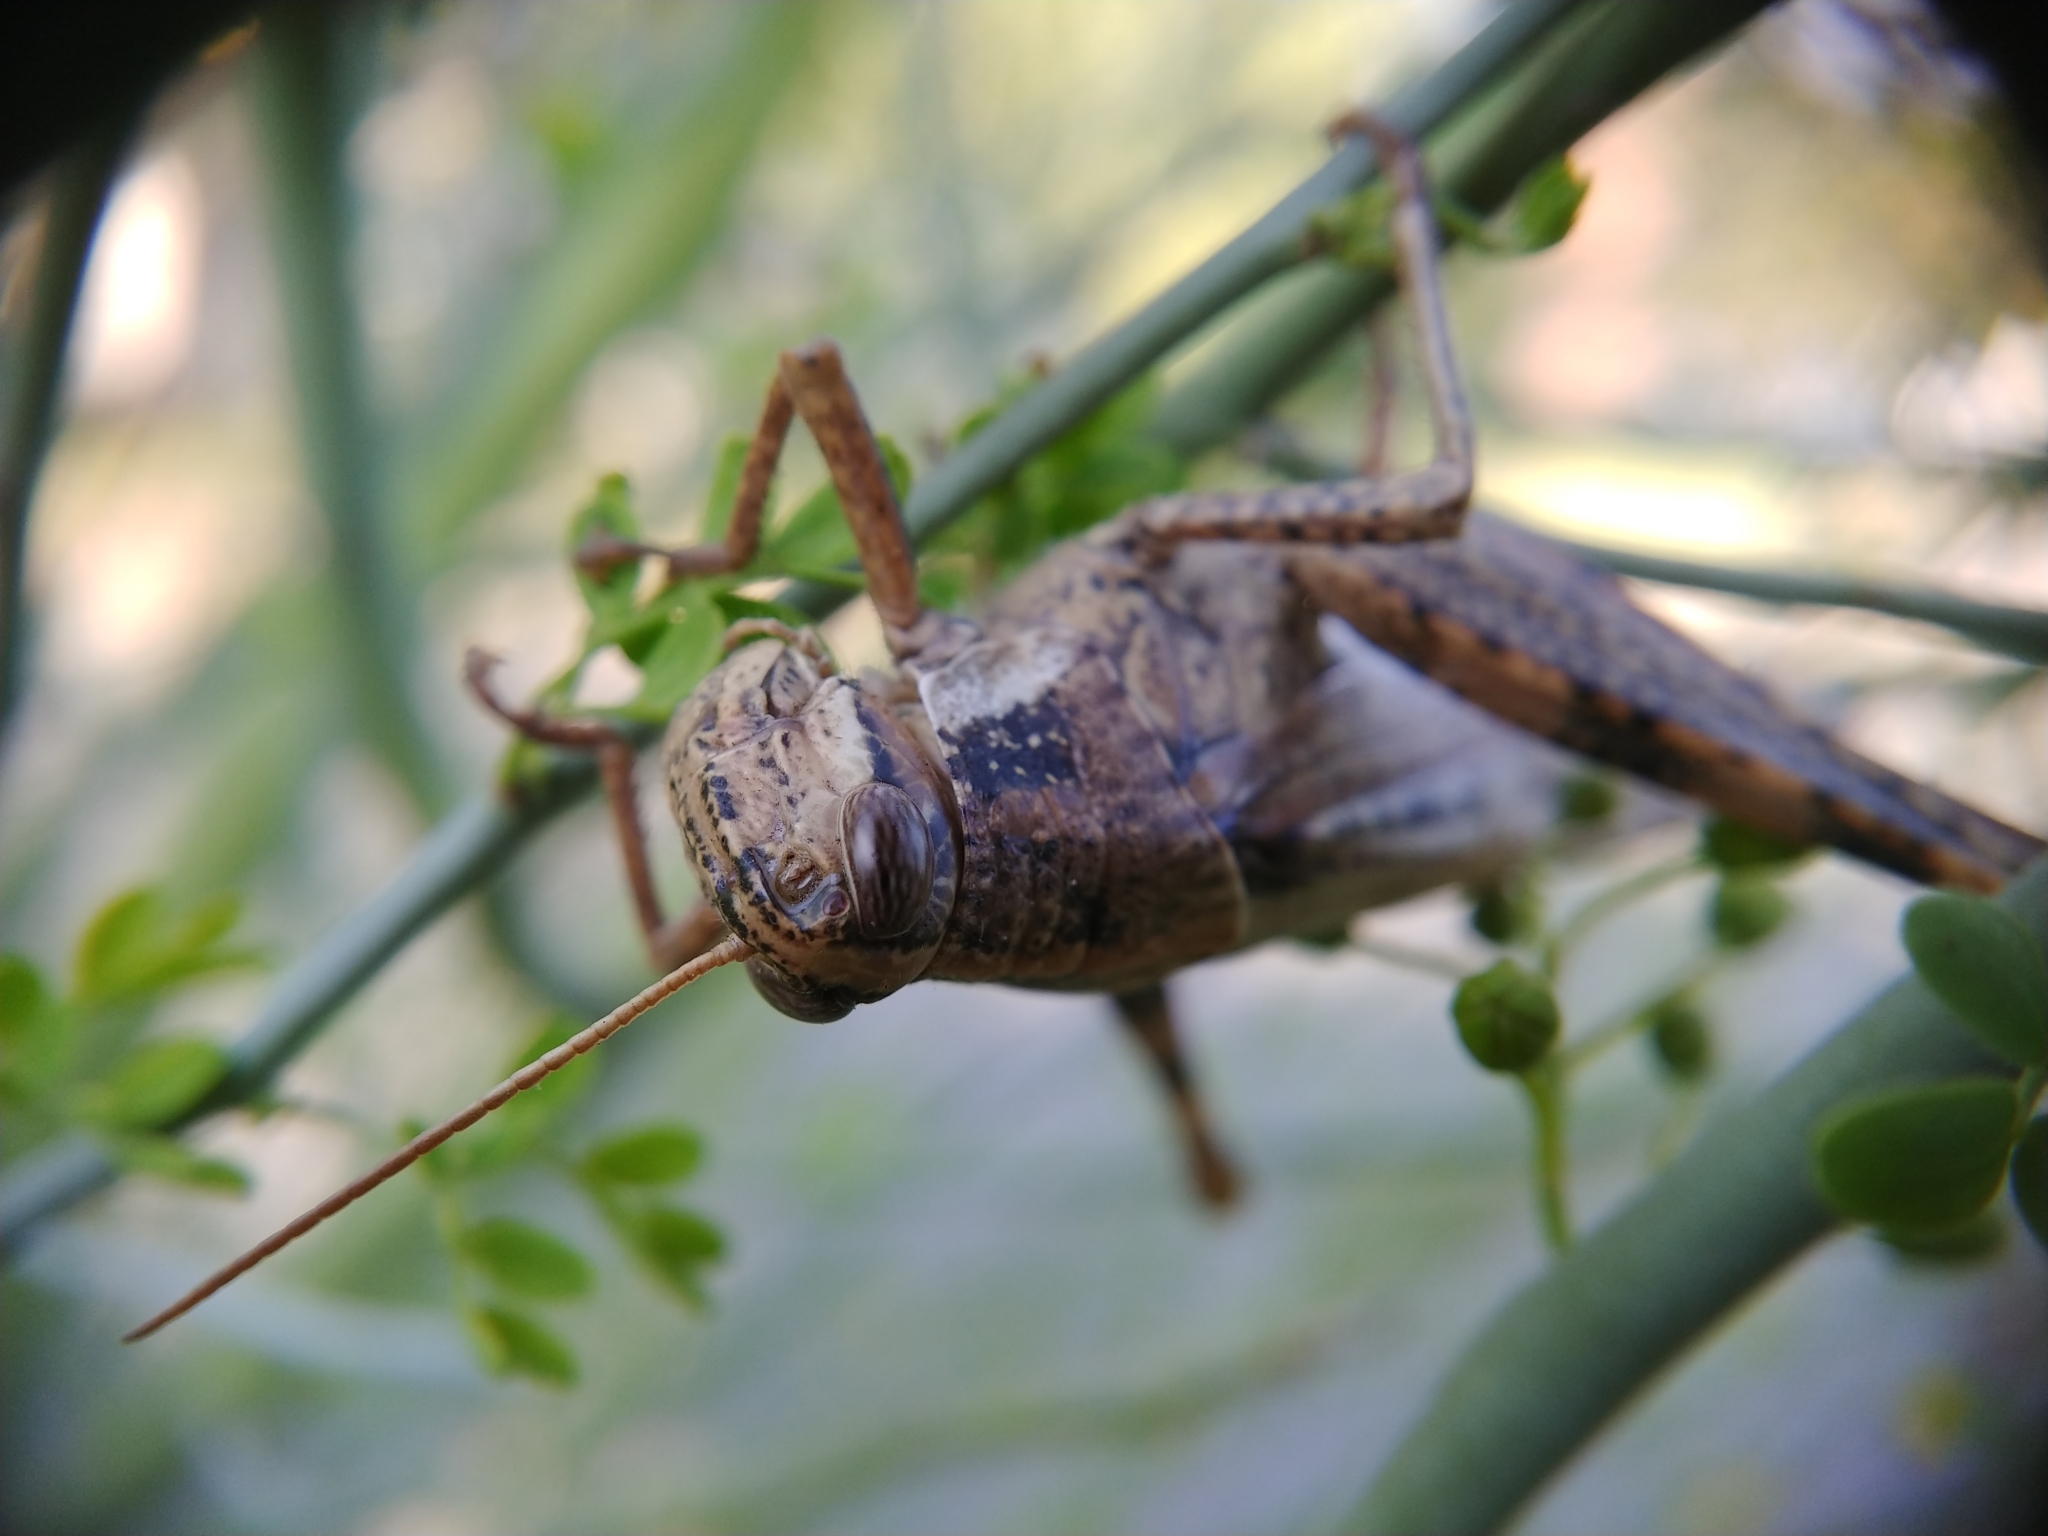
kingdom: Animalia
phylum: Arthropoda
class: Insecta
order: Orthoptera
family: Acrididae
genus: Schistocerca
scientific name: Schistocerca nitens
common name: Vagrant grasshopper
